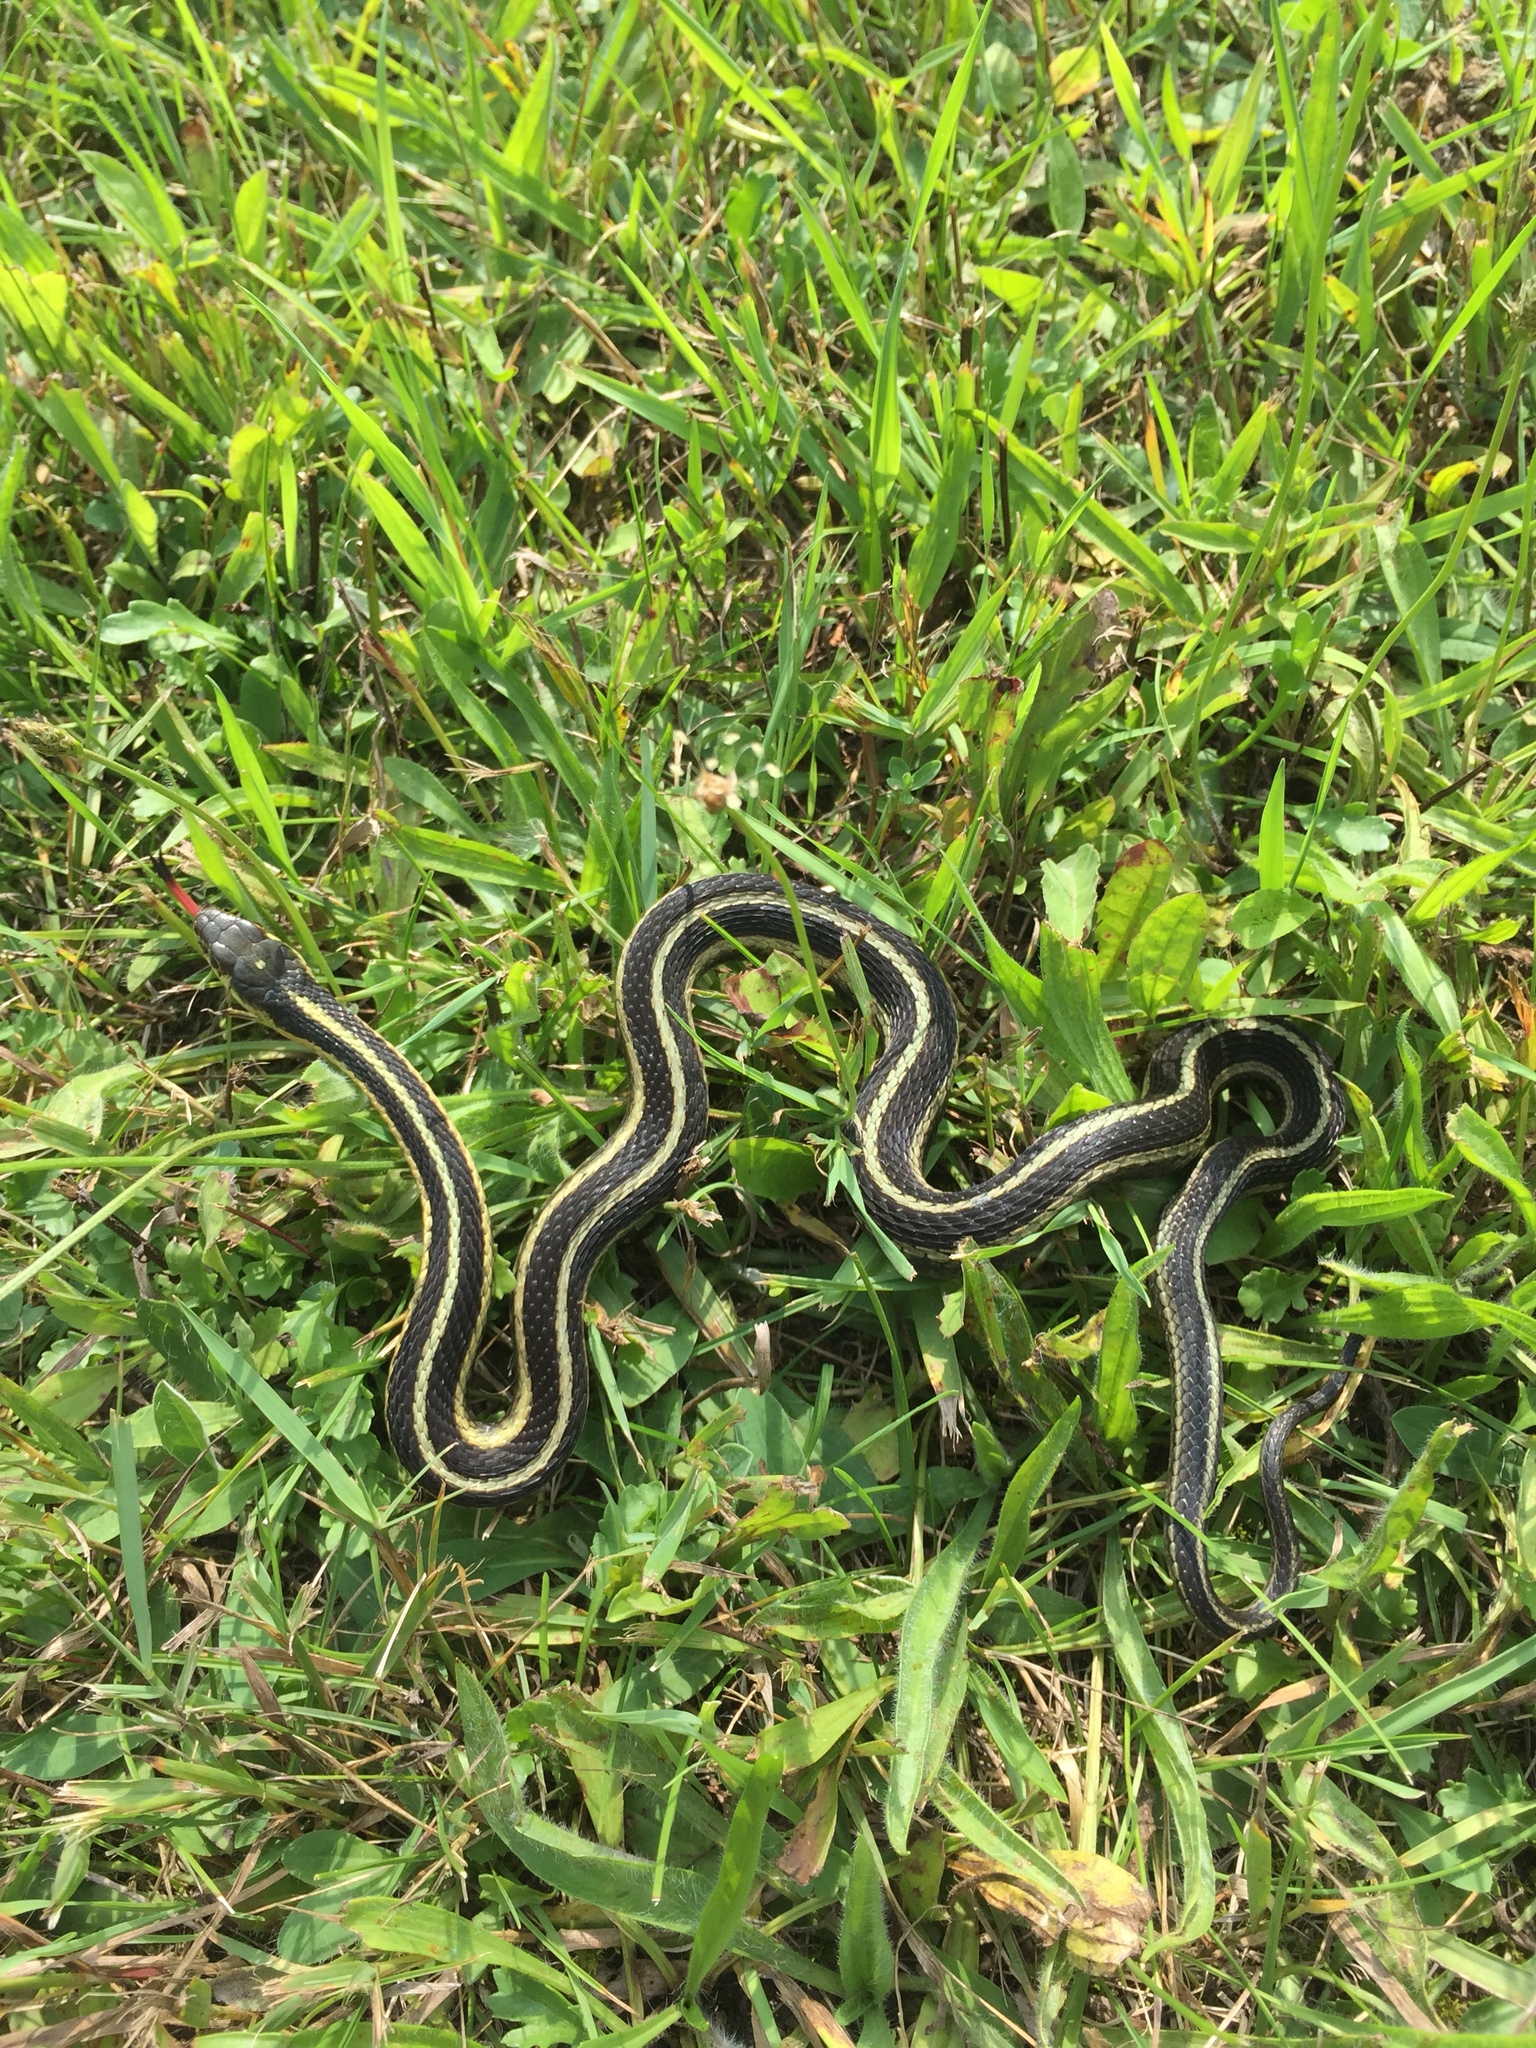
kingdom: Animalia
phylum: Chordata
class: Squamata
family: Colubridae
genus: Thamnophis
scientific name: Thamnophis sirtalis
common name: Common garter snake
